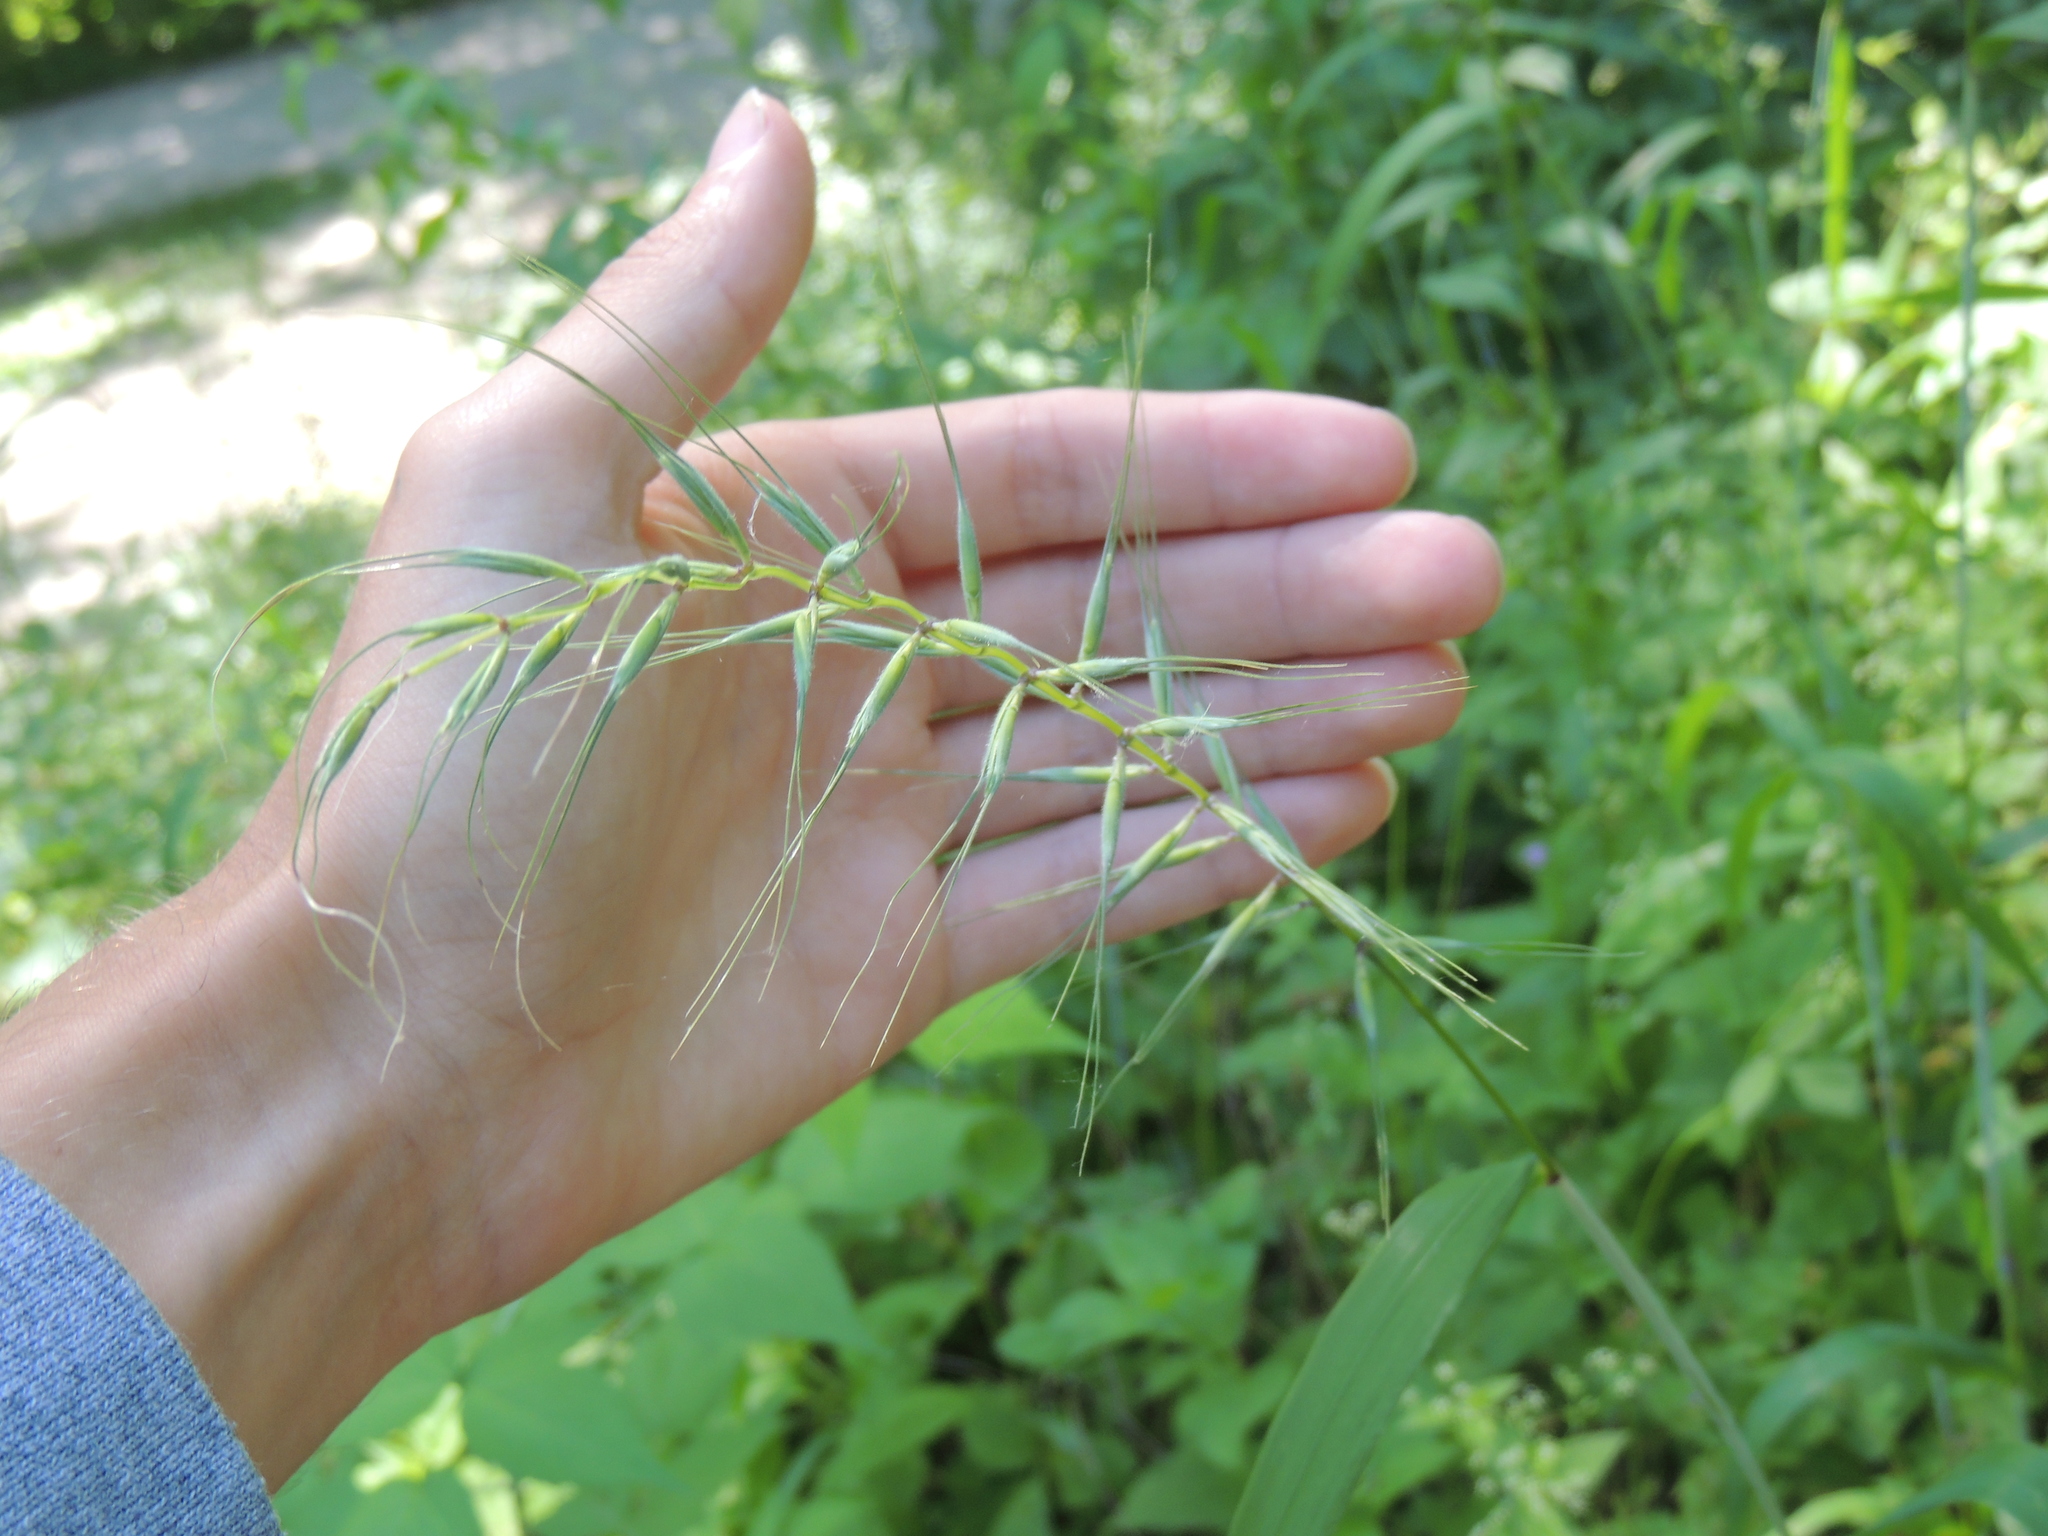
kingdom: Plantae
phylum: Tracheophyta
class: Liliopsida
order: Poales
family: Poaceae
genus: Elymus
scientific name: Elymus hystrix
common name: Bottlebrush grass
